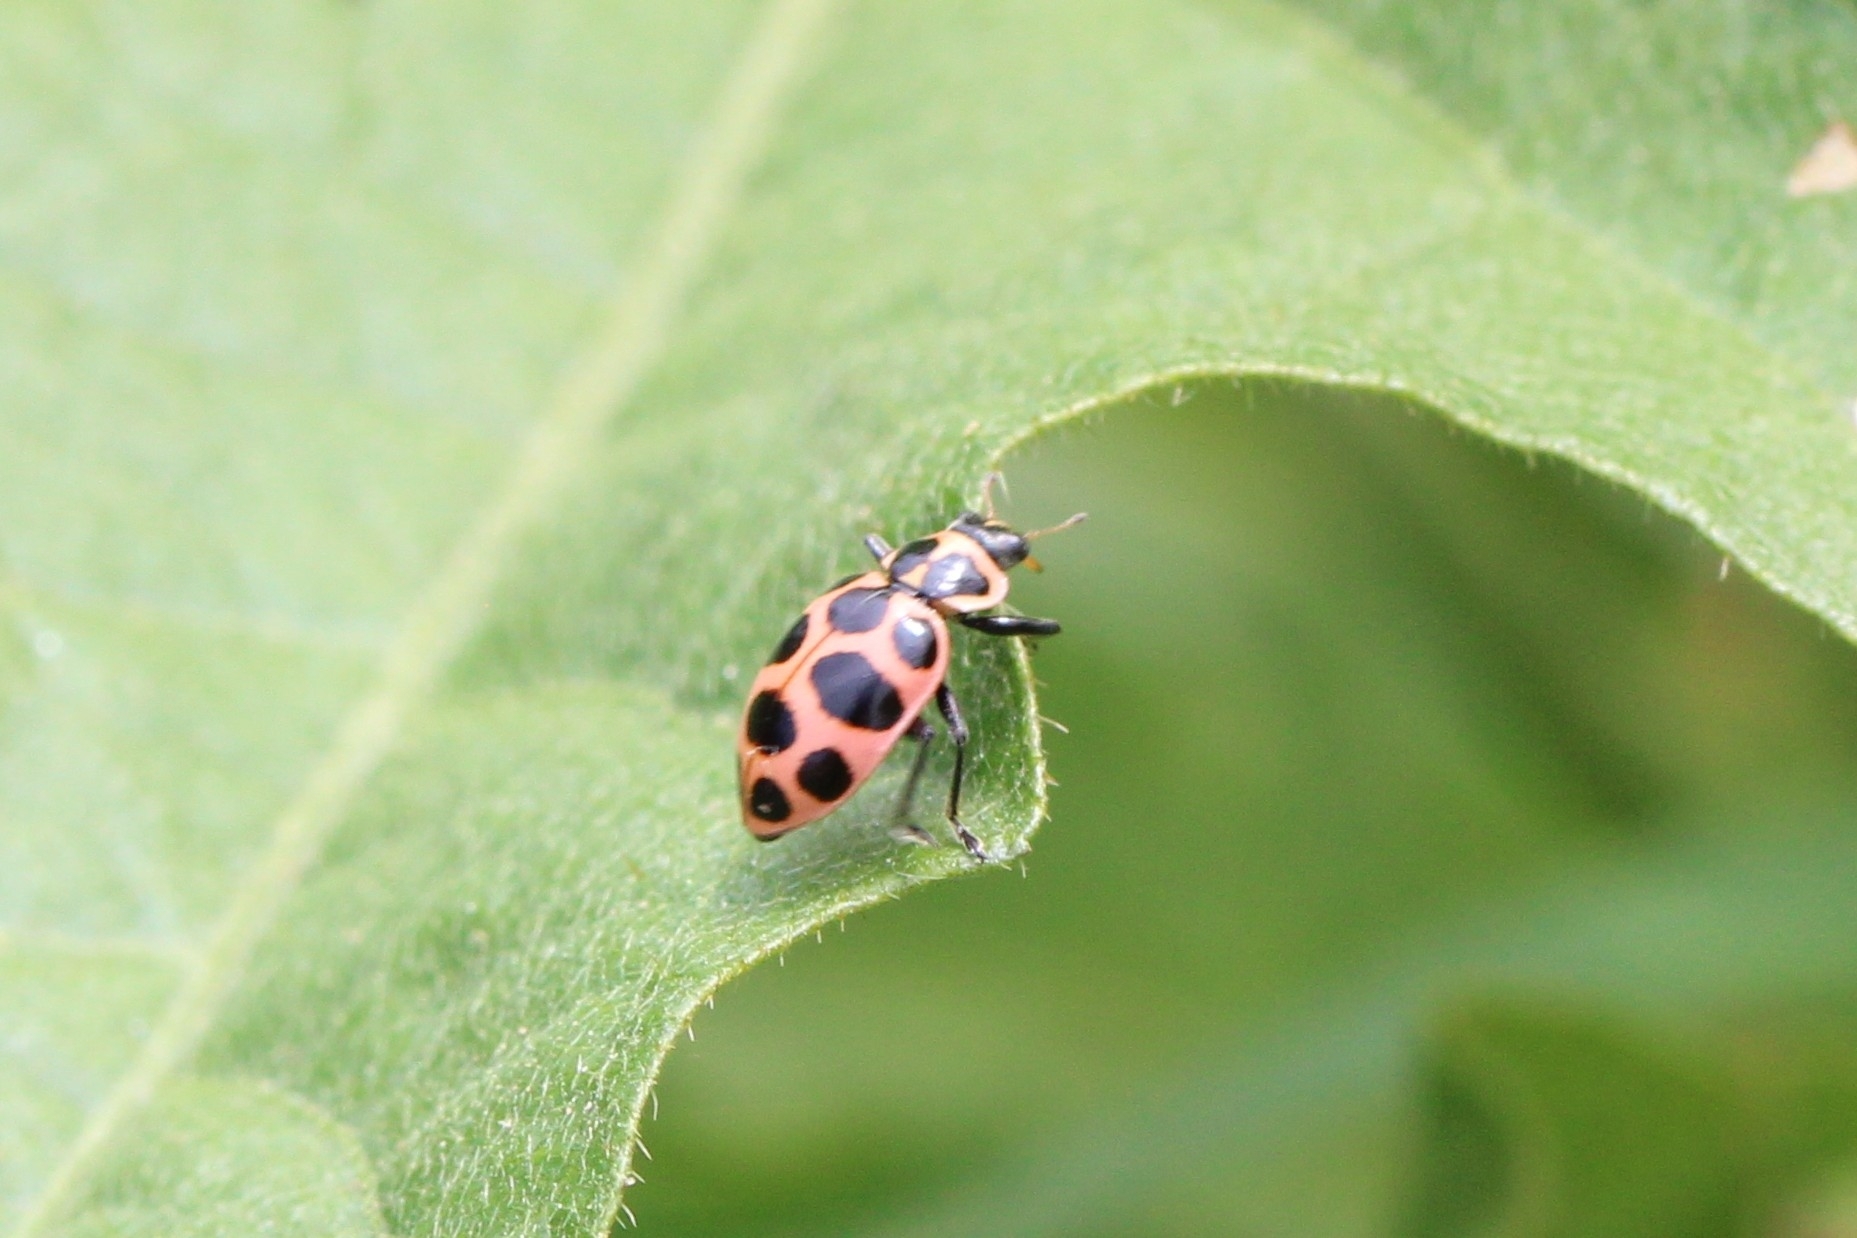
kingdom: Animalia
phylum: Arthropoda
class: Insecta
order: Coleoptera
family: Coccinellidae
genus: Coleomegilla
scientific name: Coleomegilla maculata
